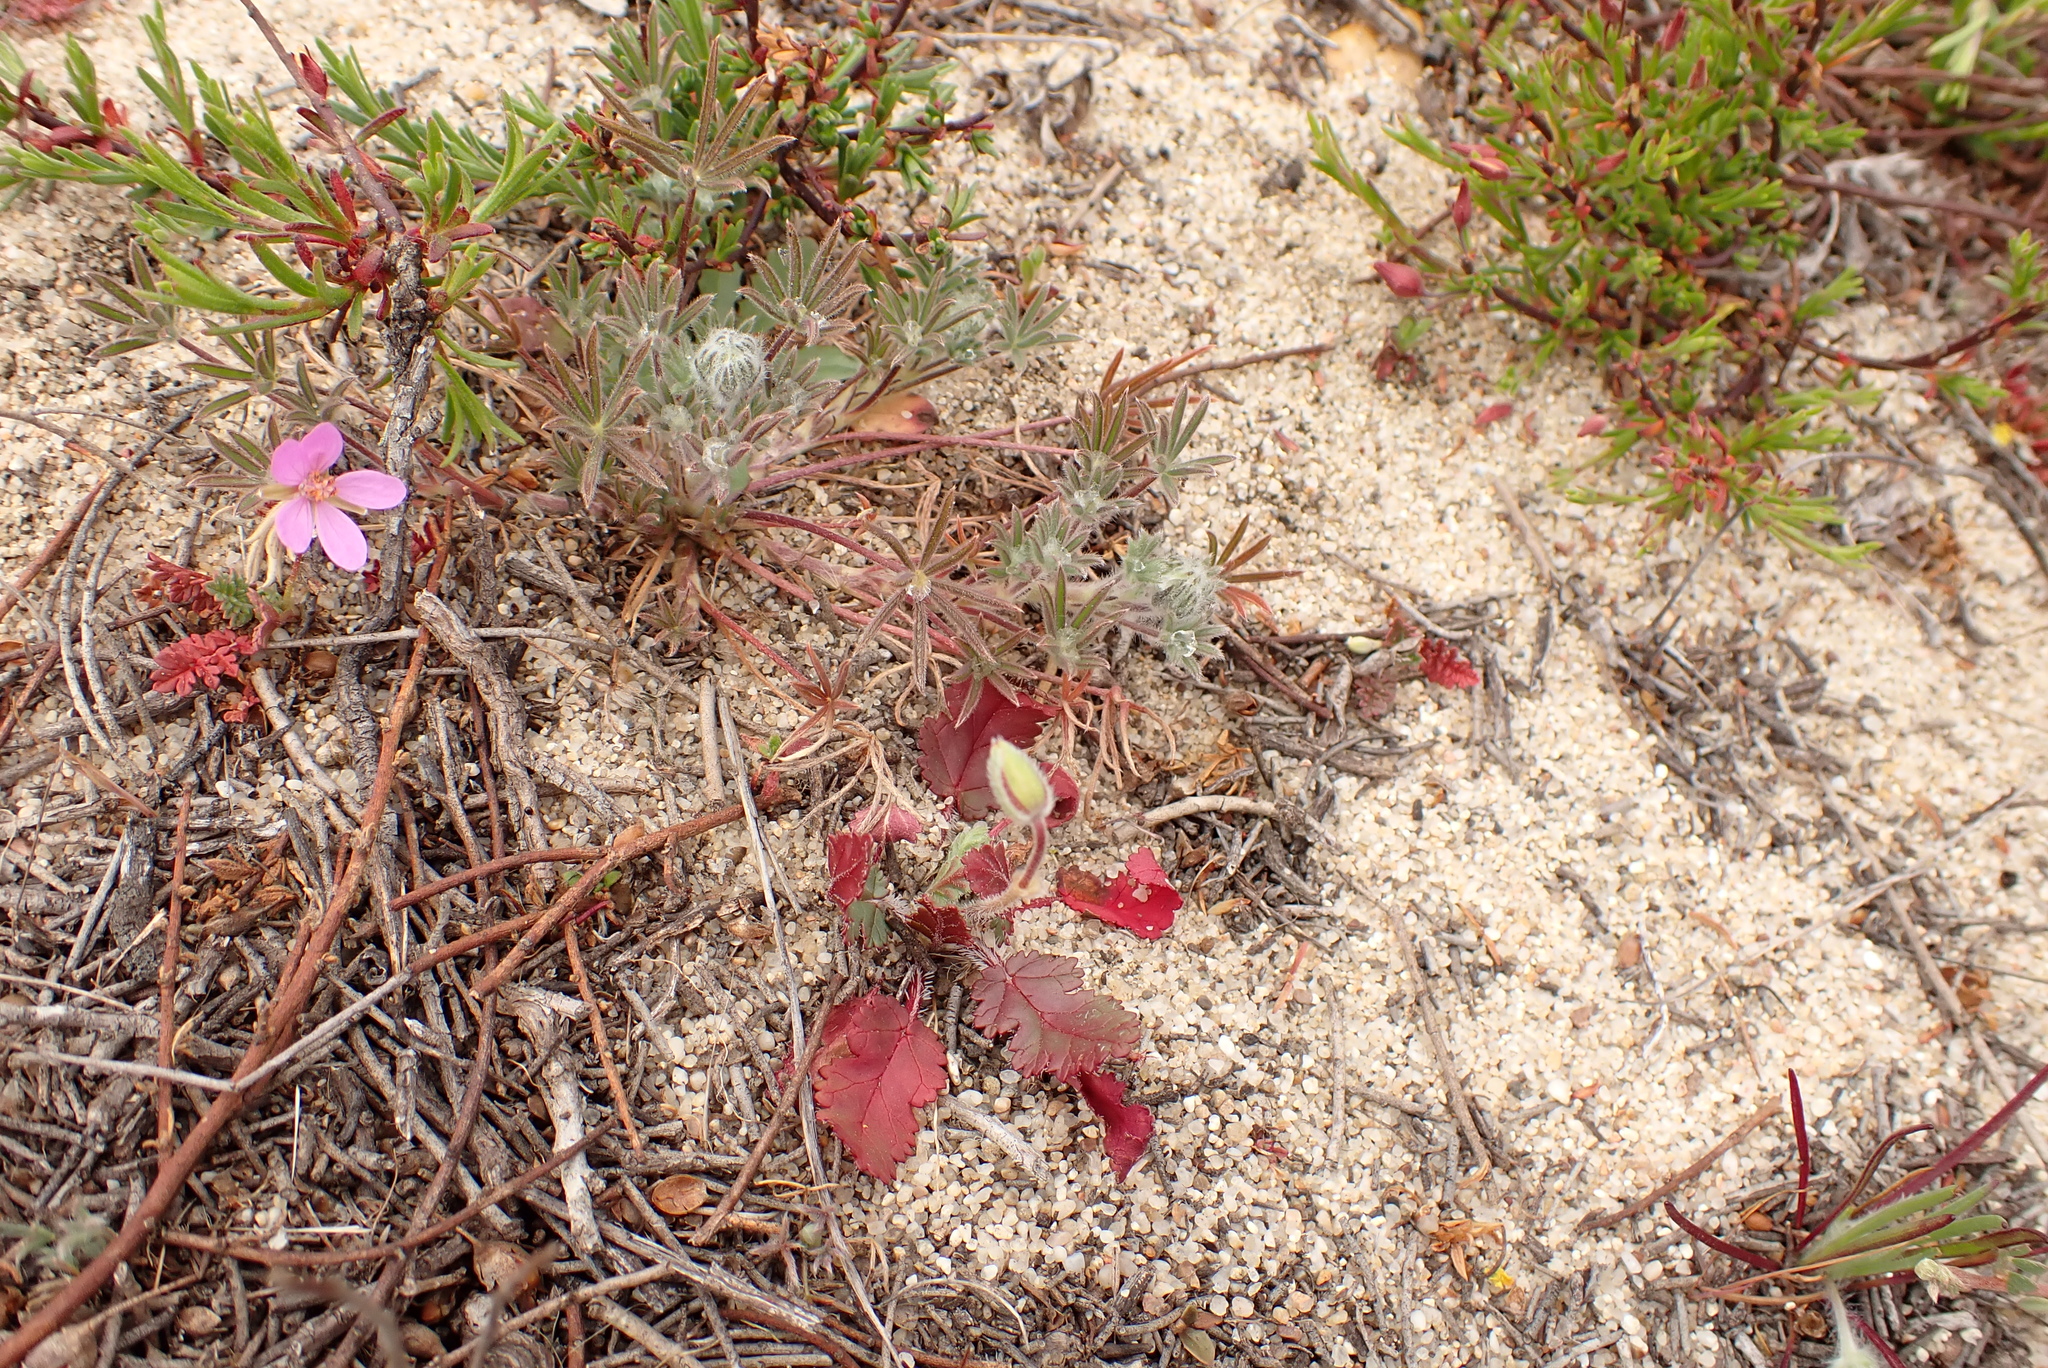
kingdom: Plantae
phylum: Tracheophyta
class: Magnoliopsida
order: Geraniales
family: Geraniaceae
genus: Erodium
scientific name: Erodium botrys
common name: Mediterranean stork's-bill
